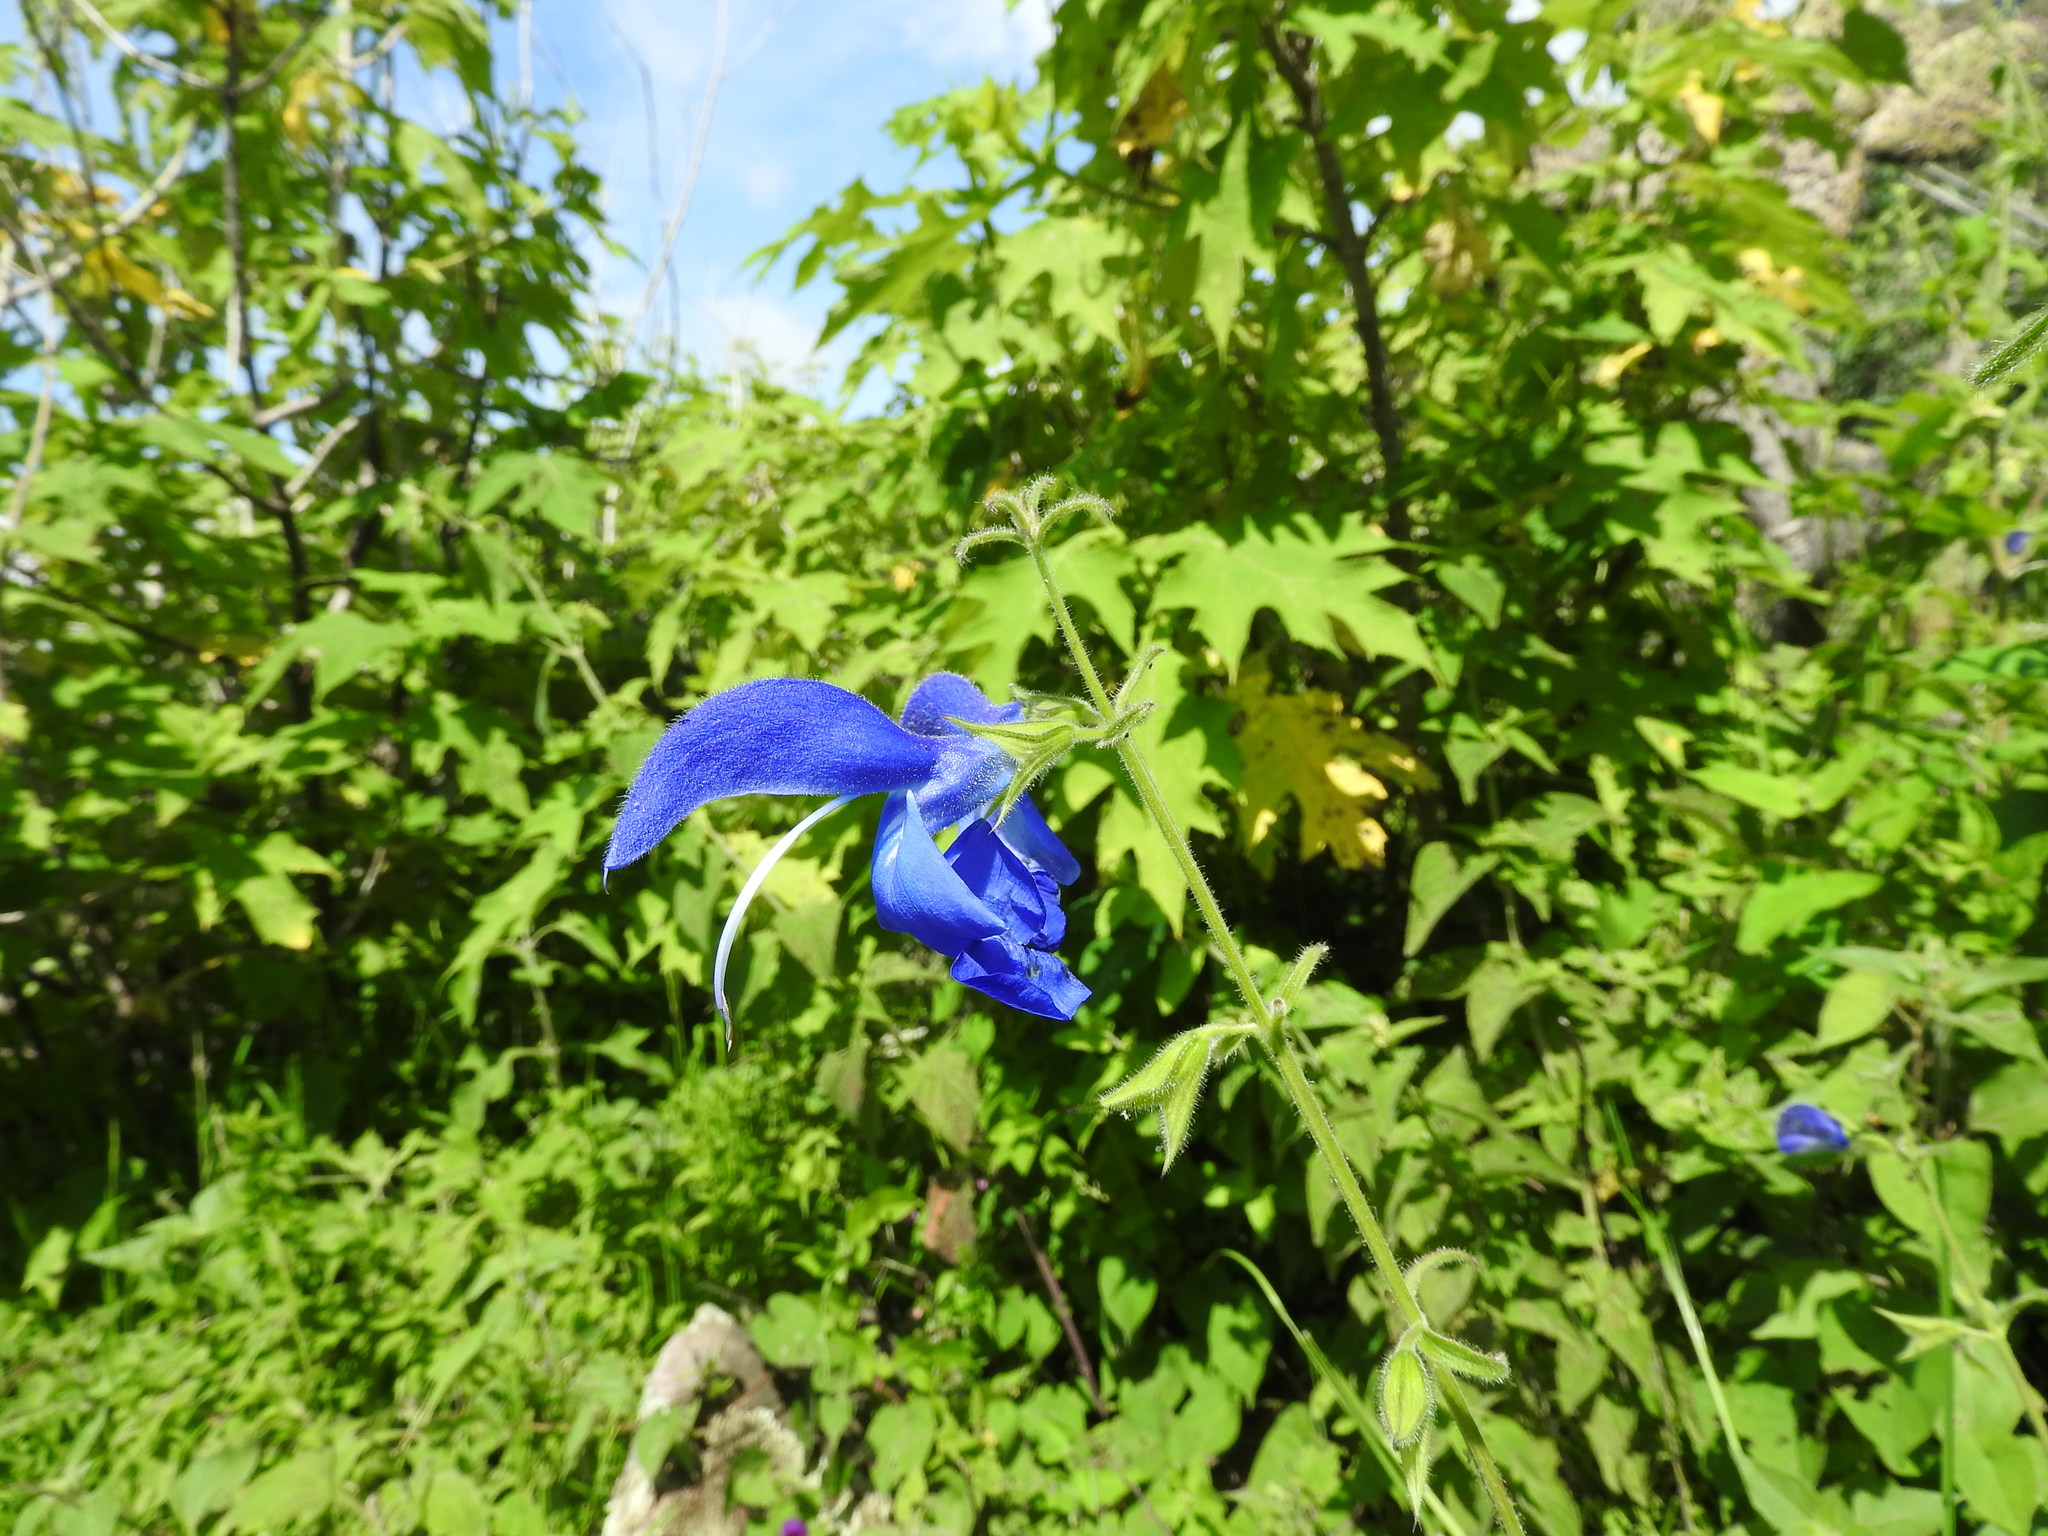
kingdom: Plantae
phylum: Tracheophyta
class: Magnoliopsida
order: Lamiales
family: Lamiaceae
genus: Salvia
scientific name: Salvia patens
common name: Blue sage
